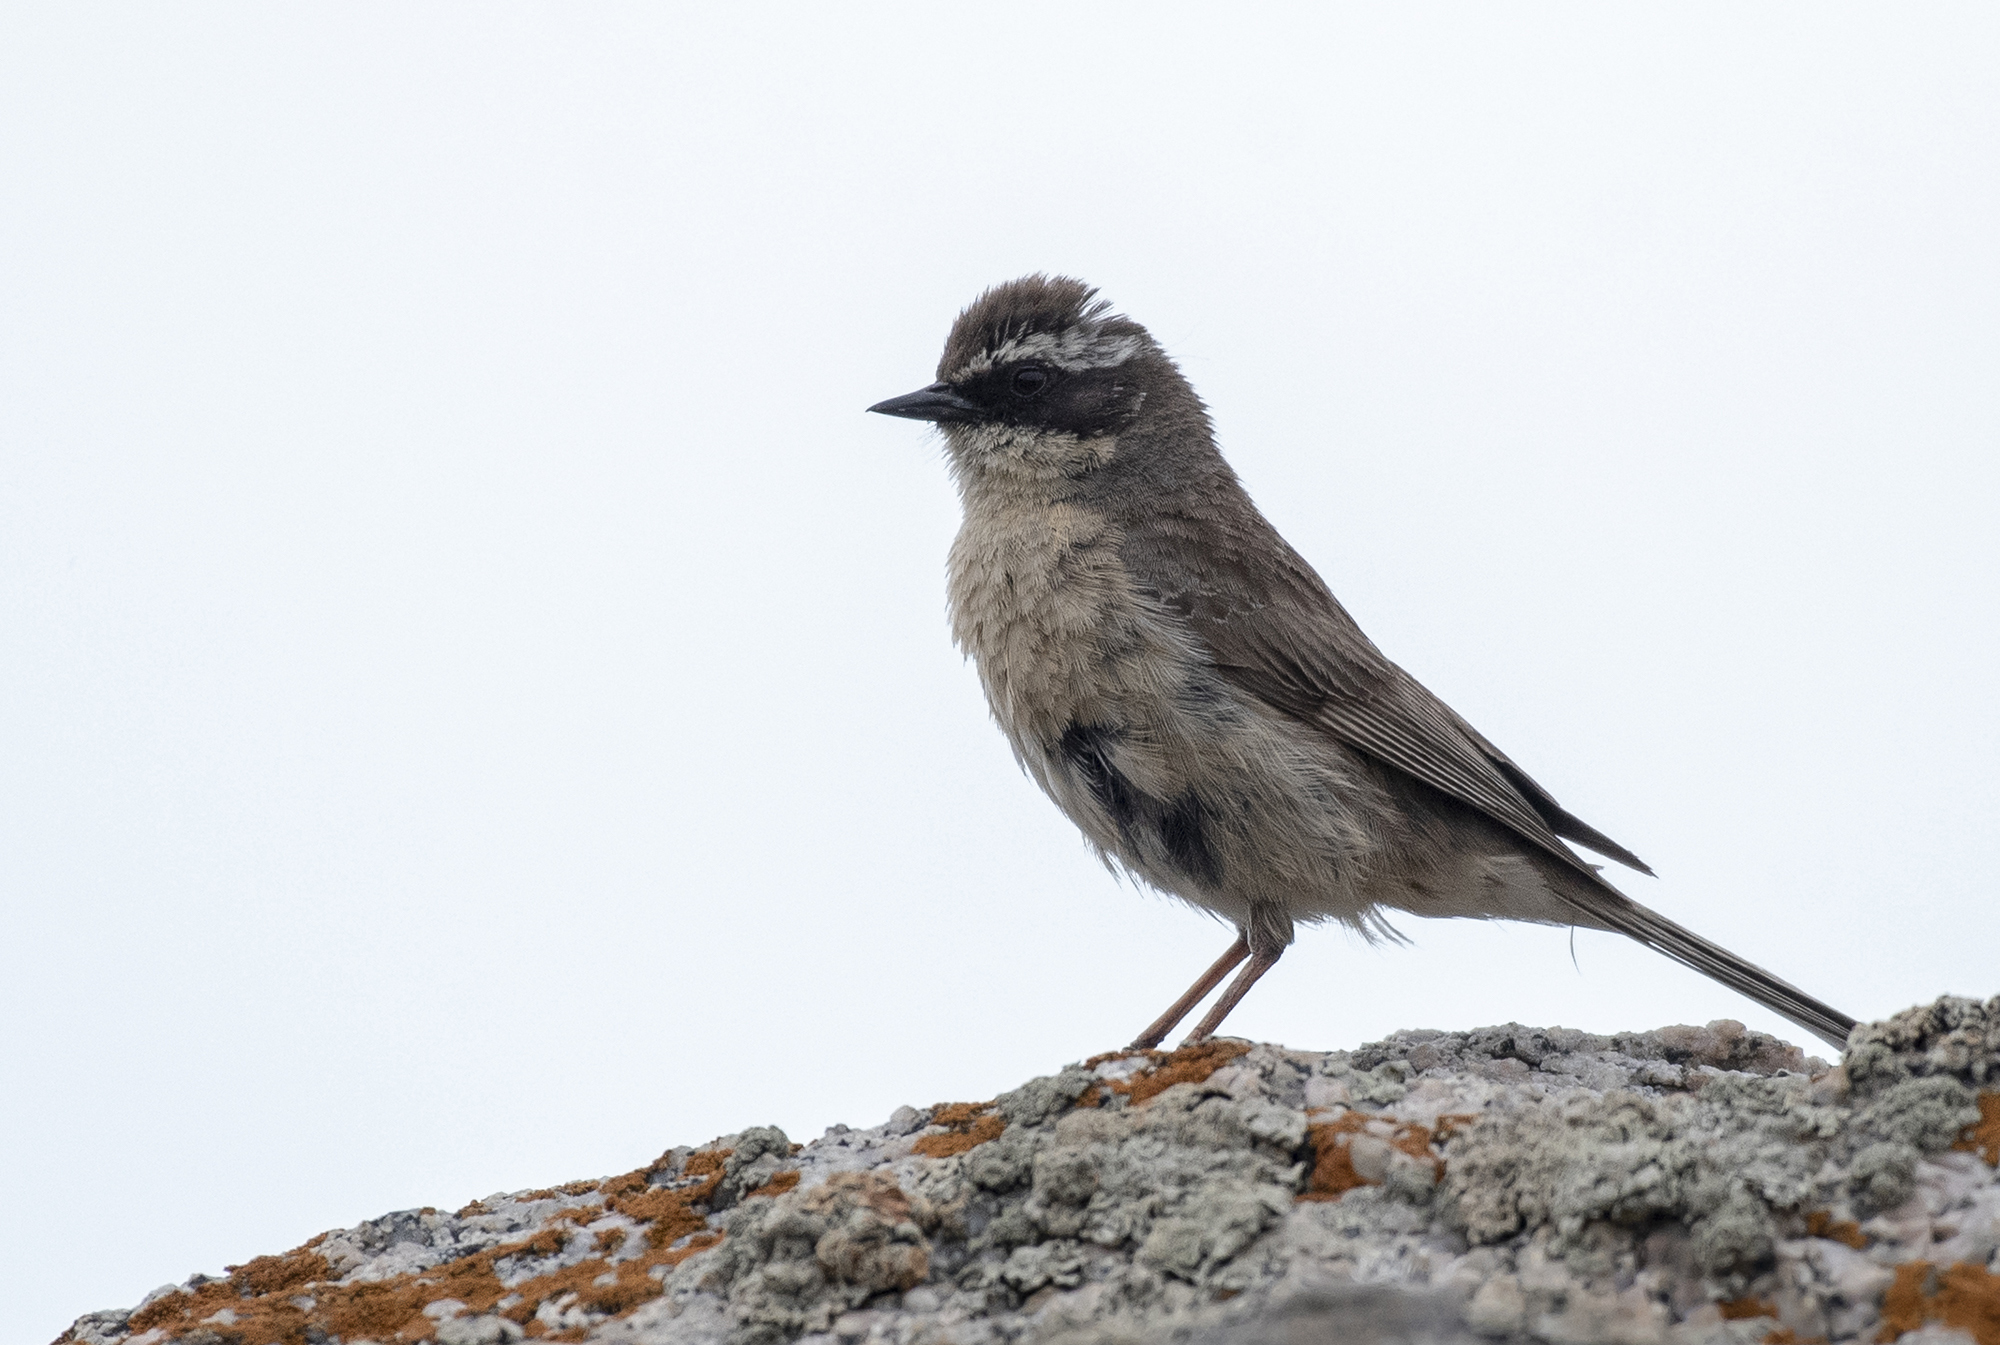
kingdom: Animalia
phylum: Chordata
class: Aves
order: Passeriformes
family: Prunellidae
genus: Prunella
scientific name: Prunella fulvescens
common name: Brown accentor
